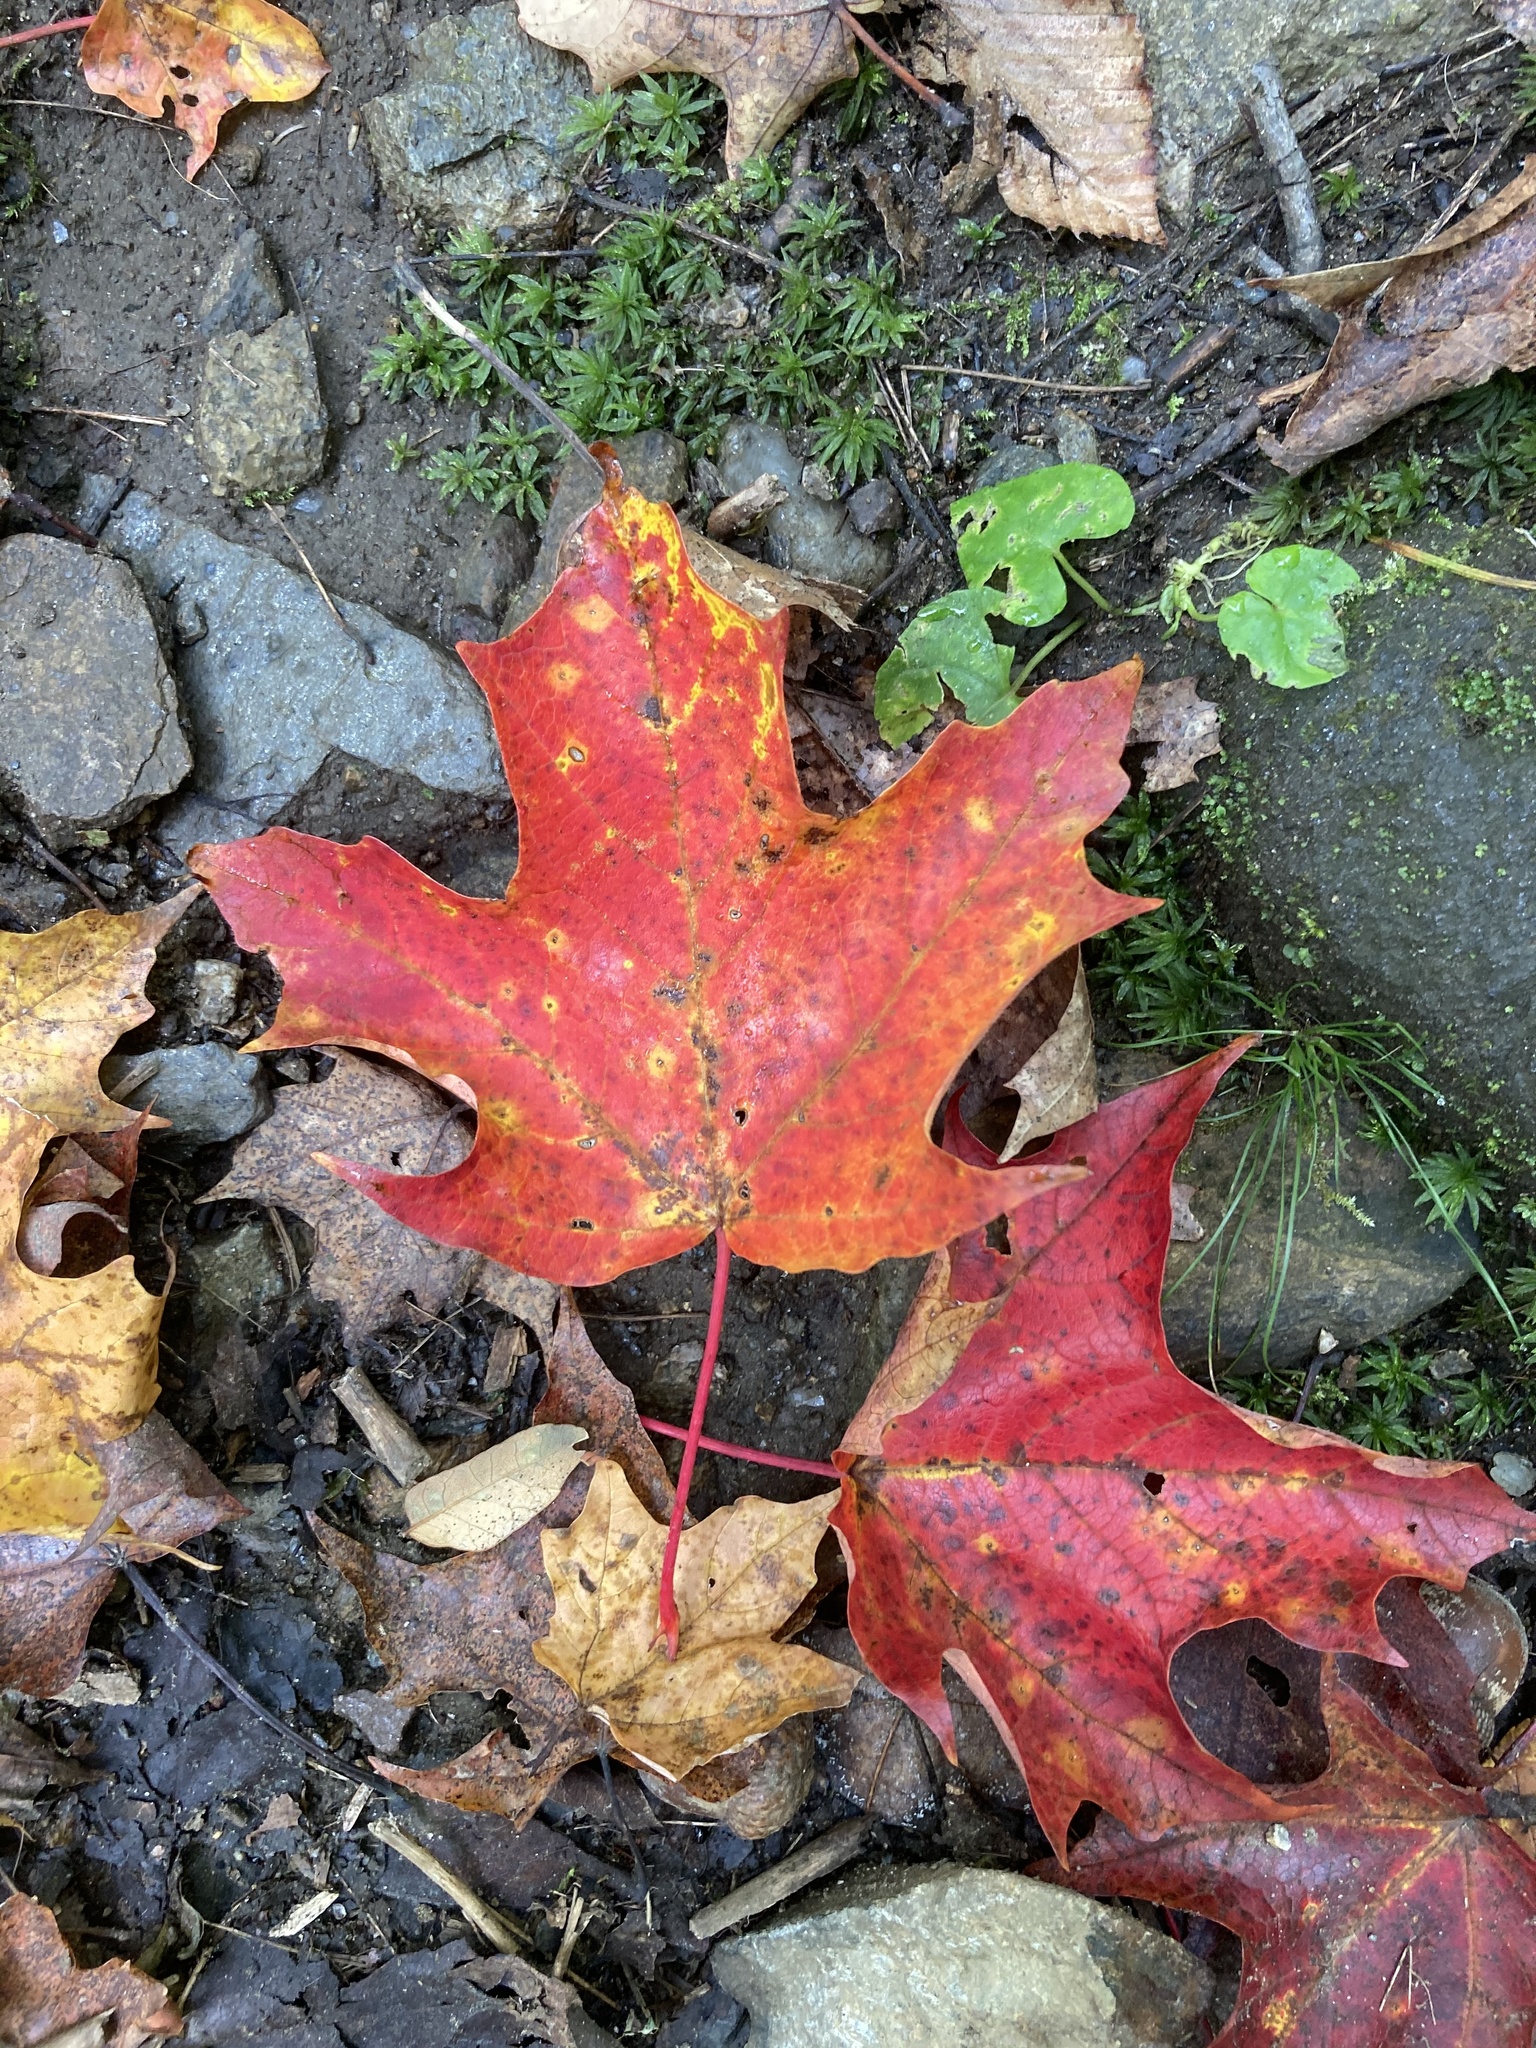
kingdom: Plantae
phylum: Tracheophyta
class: Magnoliopsida
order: Sapindales
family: Sapindaceae
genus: Acer
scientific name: Acer saccharum
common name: Sugar maple
